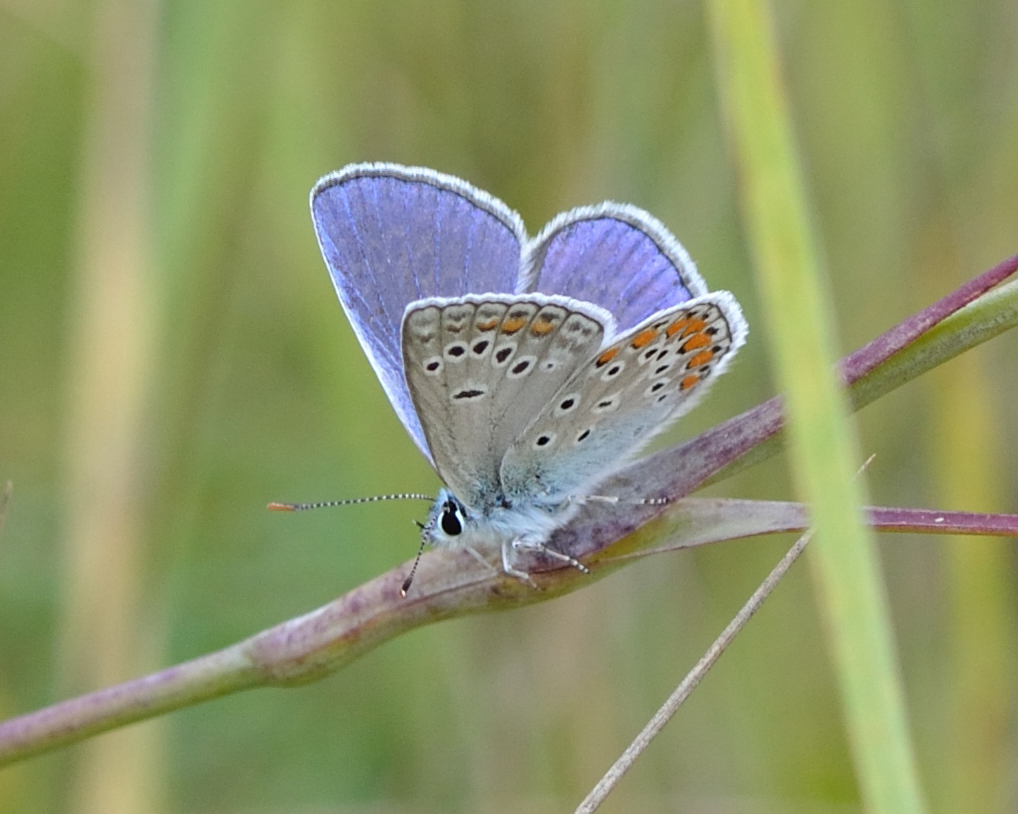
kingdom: Animalia
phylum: Arthropoda
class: Insecta
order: Lepidoptera
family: Lycaenidae
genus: Polyommatus
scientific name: Polyommatus thersites
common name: Chapman's blue
